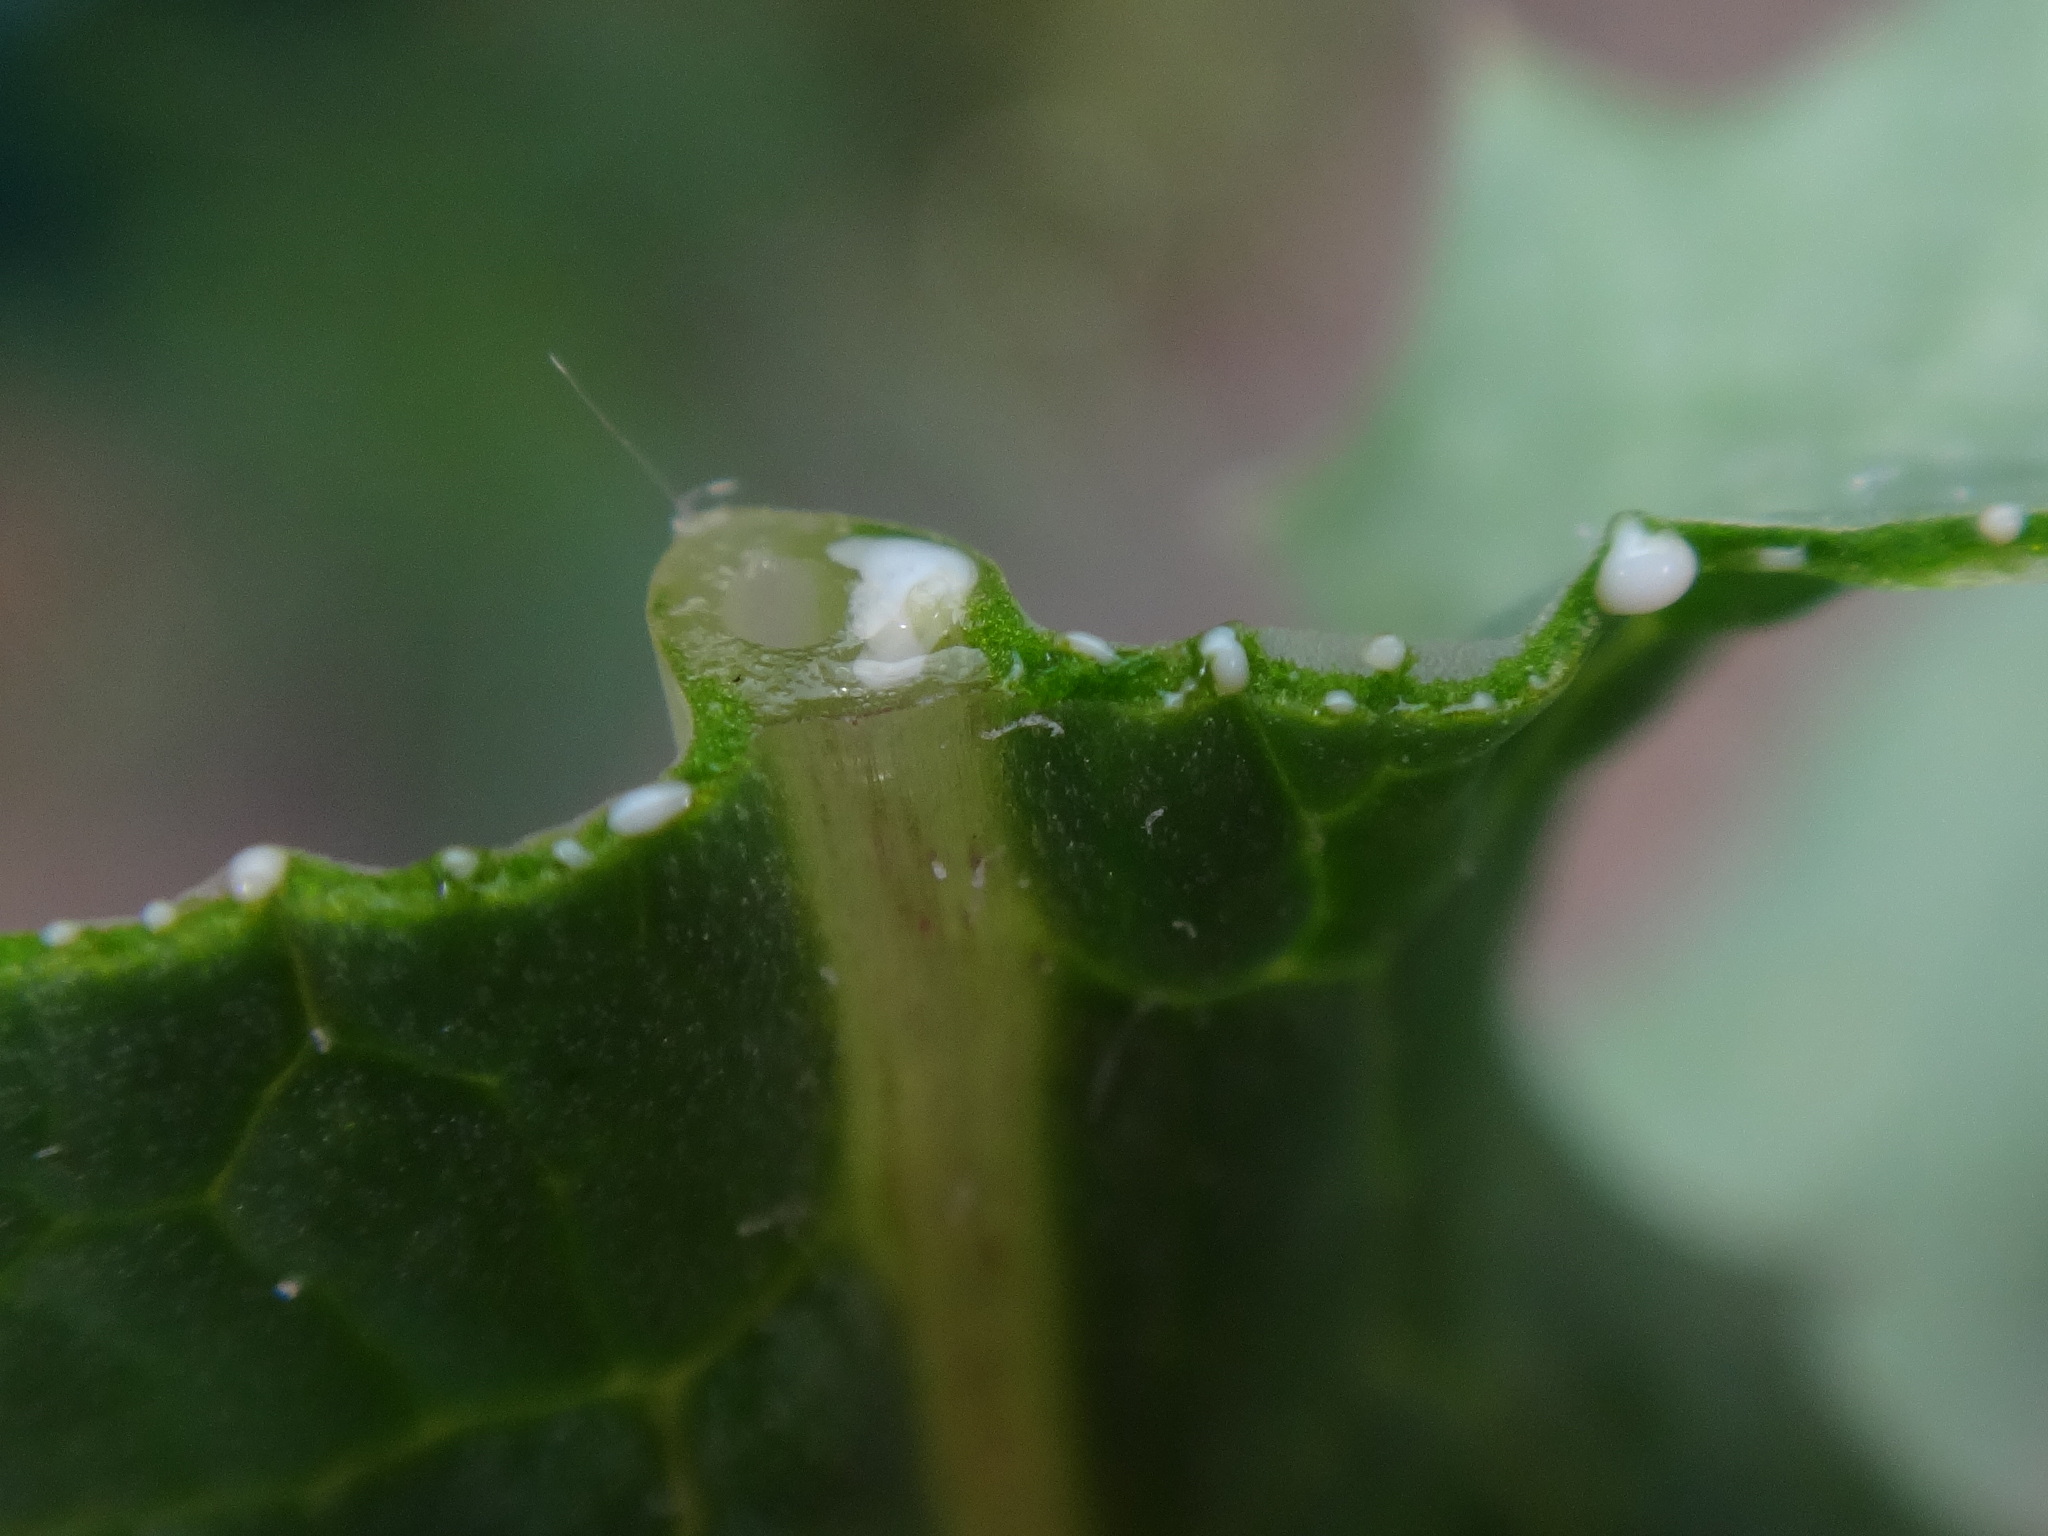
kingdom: Plantae
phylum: Tracheophyta
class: Magnoliopsida
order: Asterales
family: Asteraceae
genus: Sonchus
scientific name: Sonchus asper
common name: Prickly sow-thistle
